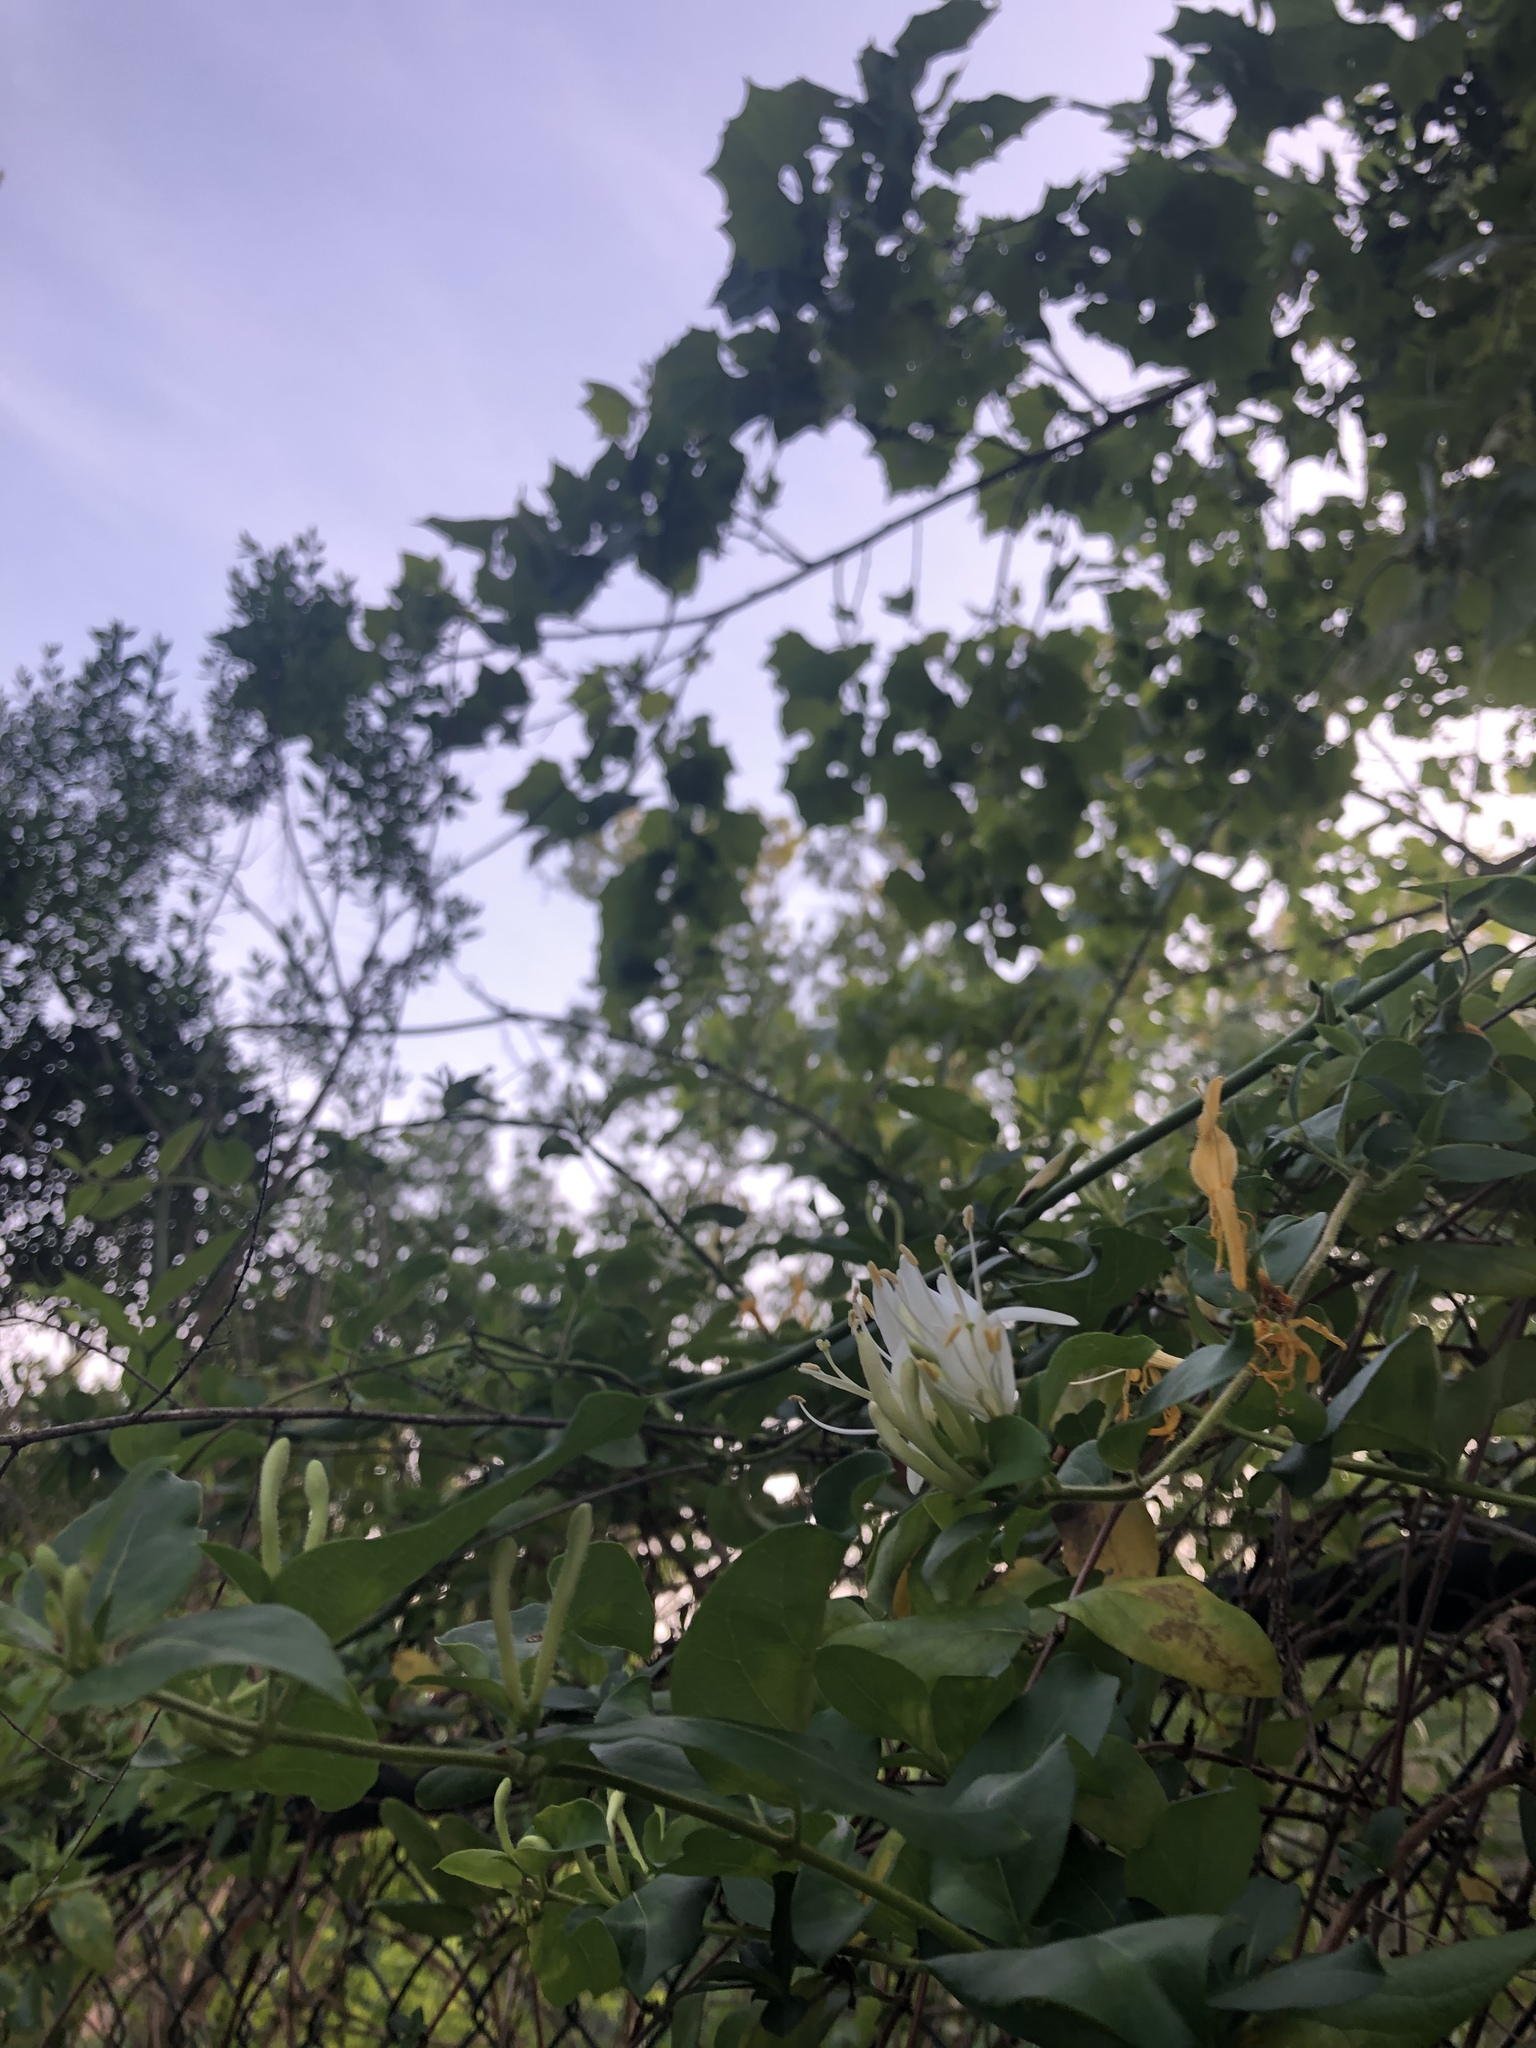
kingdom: Plantae
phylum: Tracheophyta
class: Magnoliopsida
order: Dipsacales
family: Caprifoliaceae
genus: Lonicera
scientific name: Lonicera japonica
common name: Japanese honeysuckle
